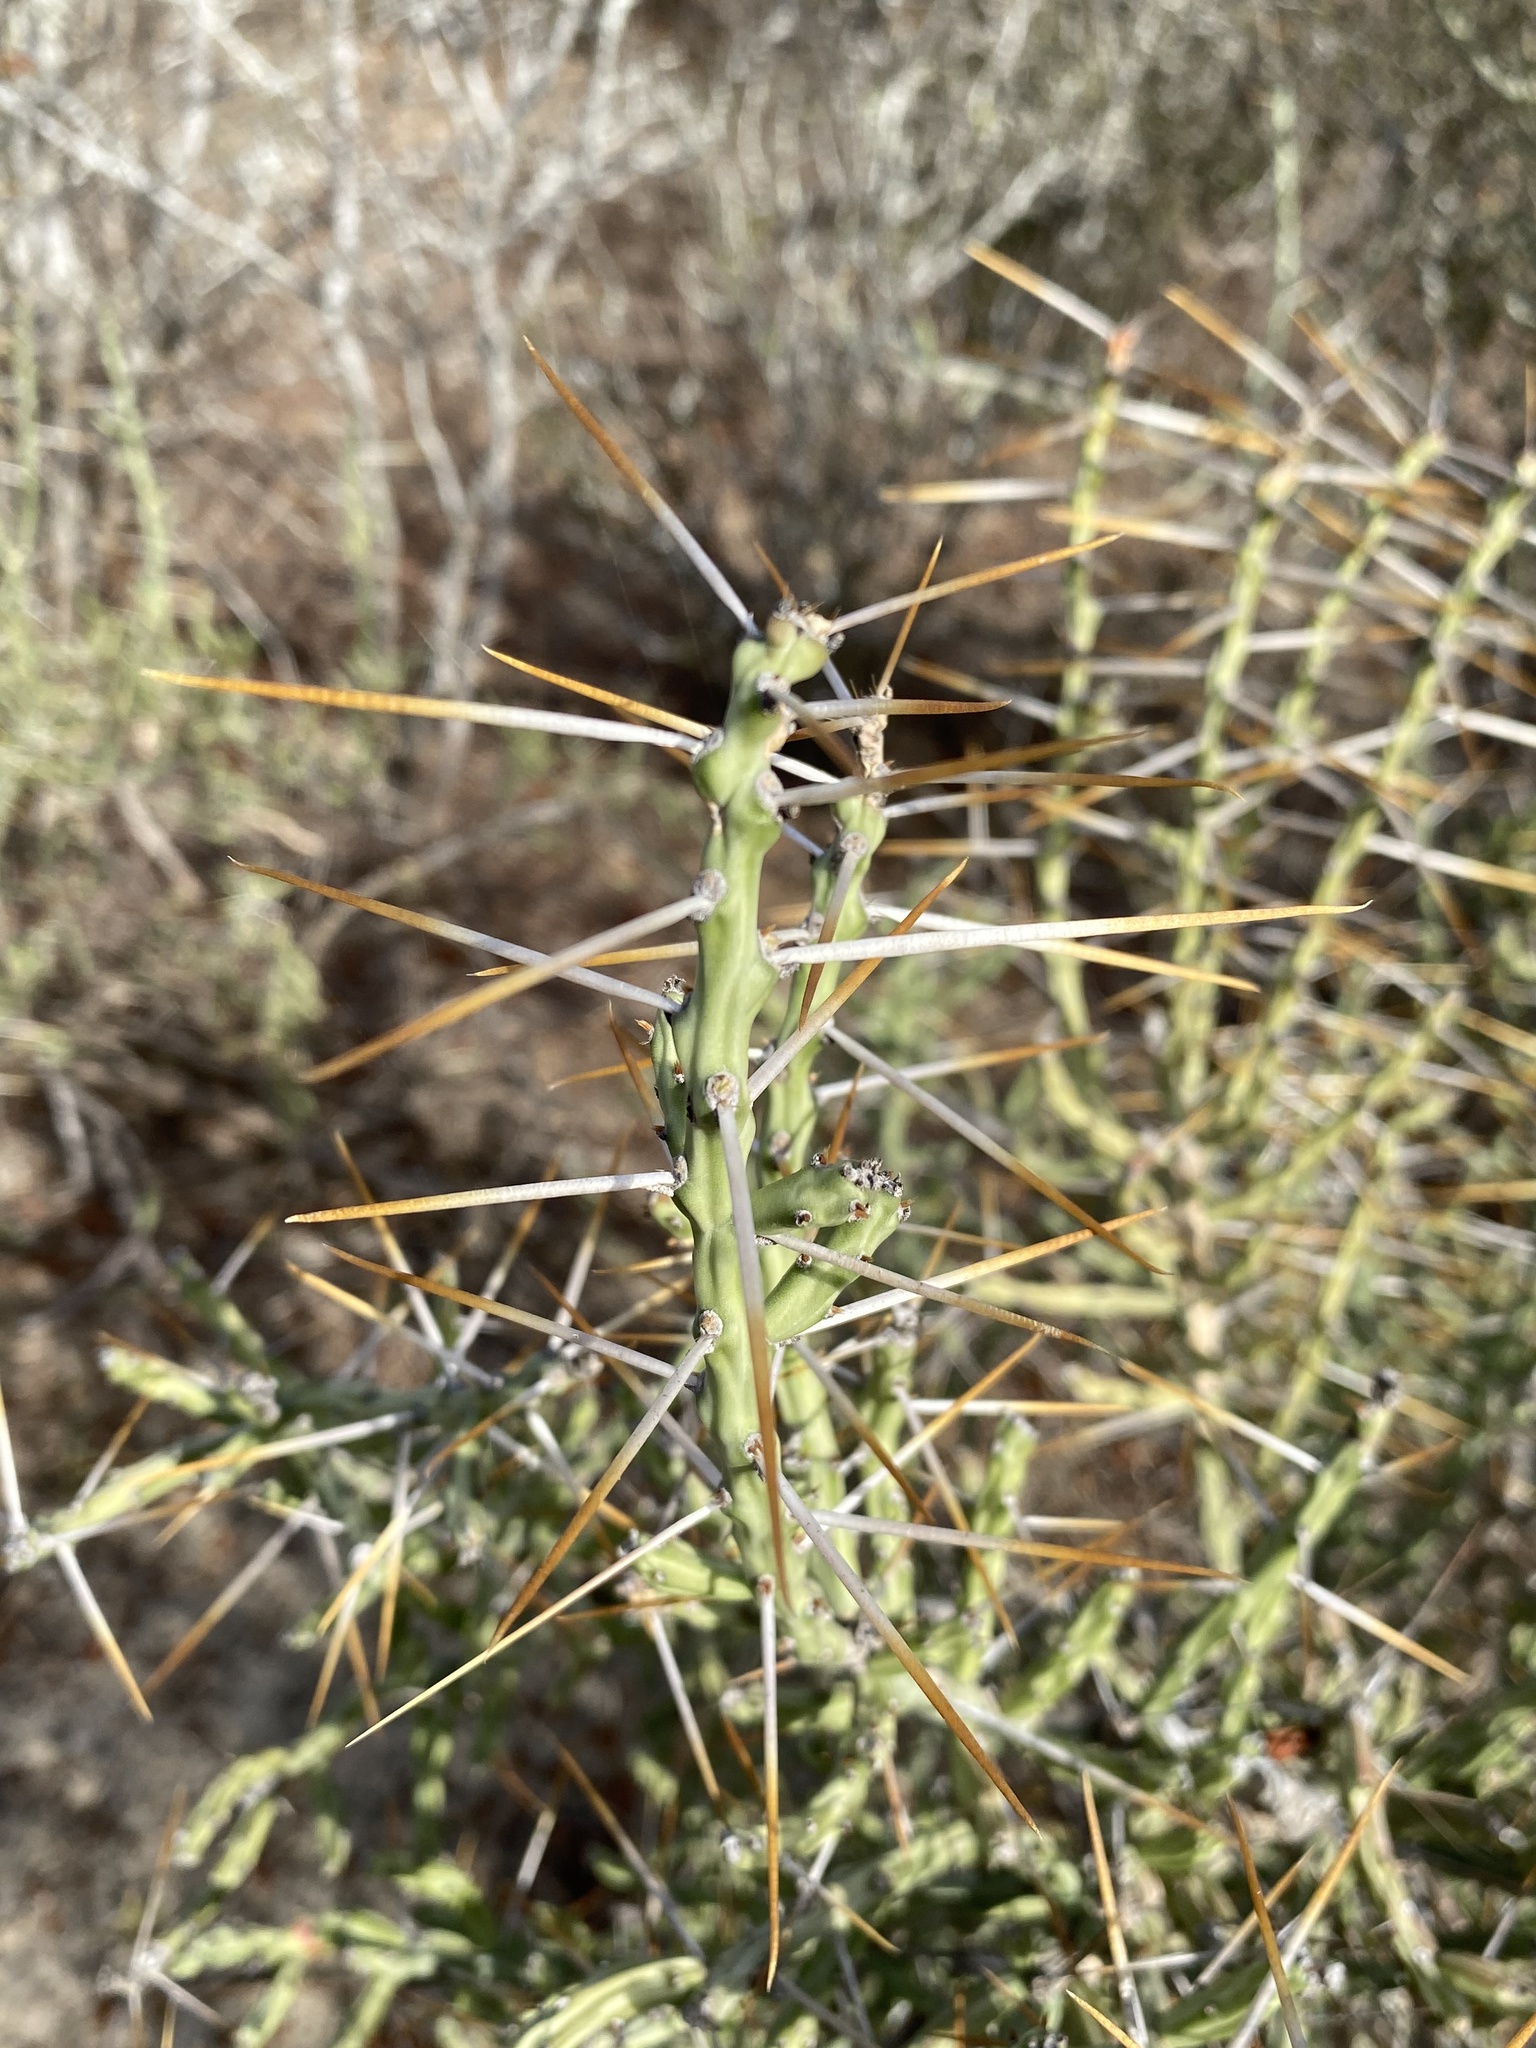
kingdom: Plantae
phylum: Tracheophyta
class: Magnoliopsida
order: Caryophyllales
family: Cactaceae
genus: Cylindropuntia
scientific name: Cylindropuntia leptocaulis
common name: Christmas cactus
